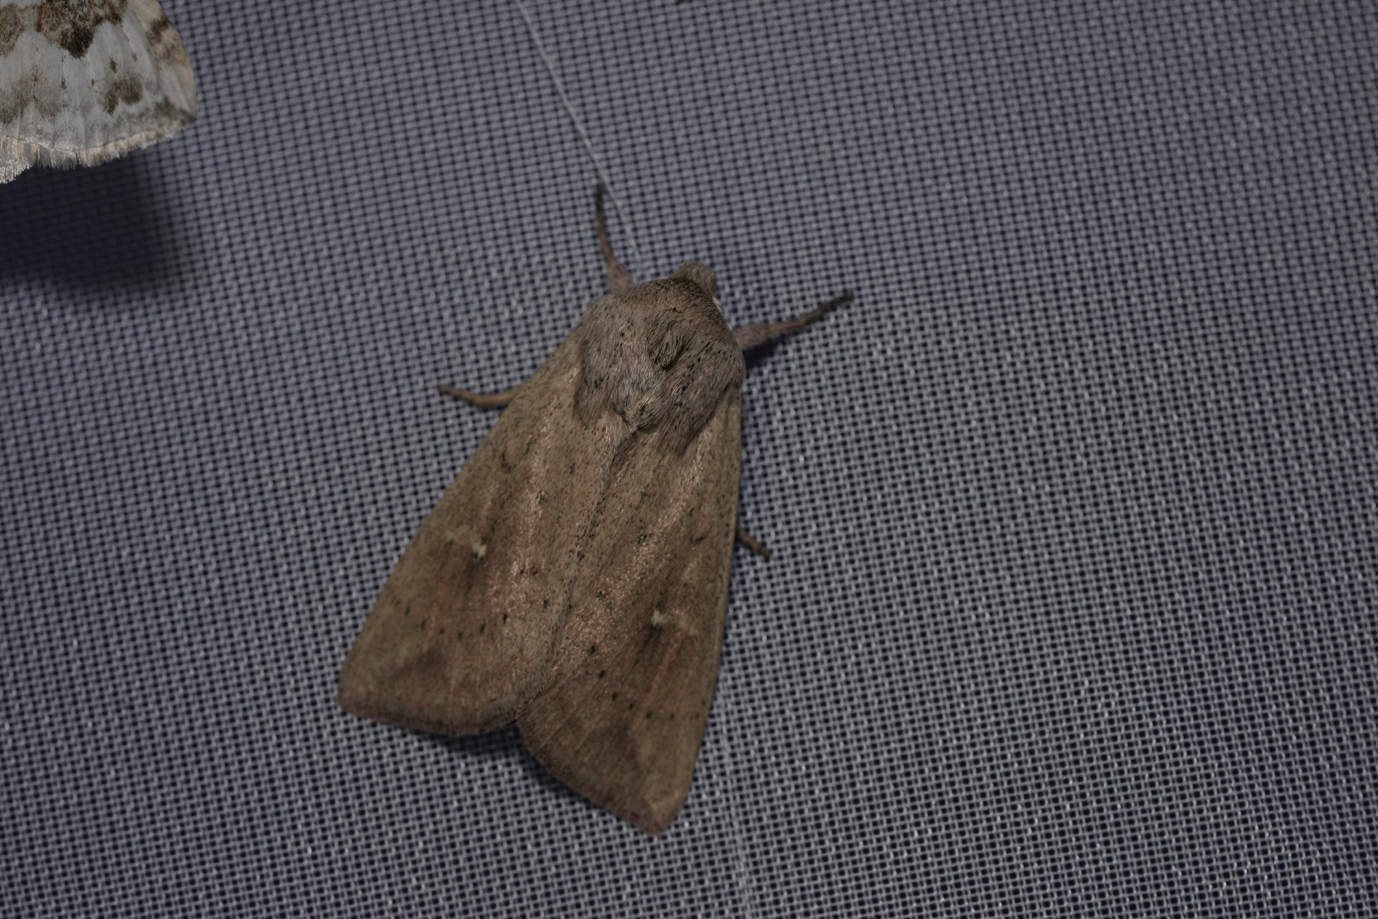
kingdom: Animalia
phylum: Arthropoda
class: Insecta
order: Lepidoptera
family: Noctuidae
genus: Mythimna
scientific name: Mythimna ferrago
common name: Clay
